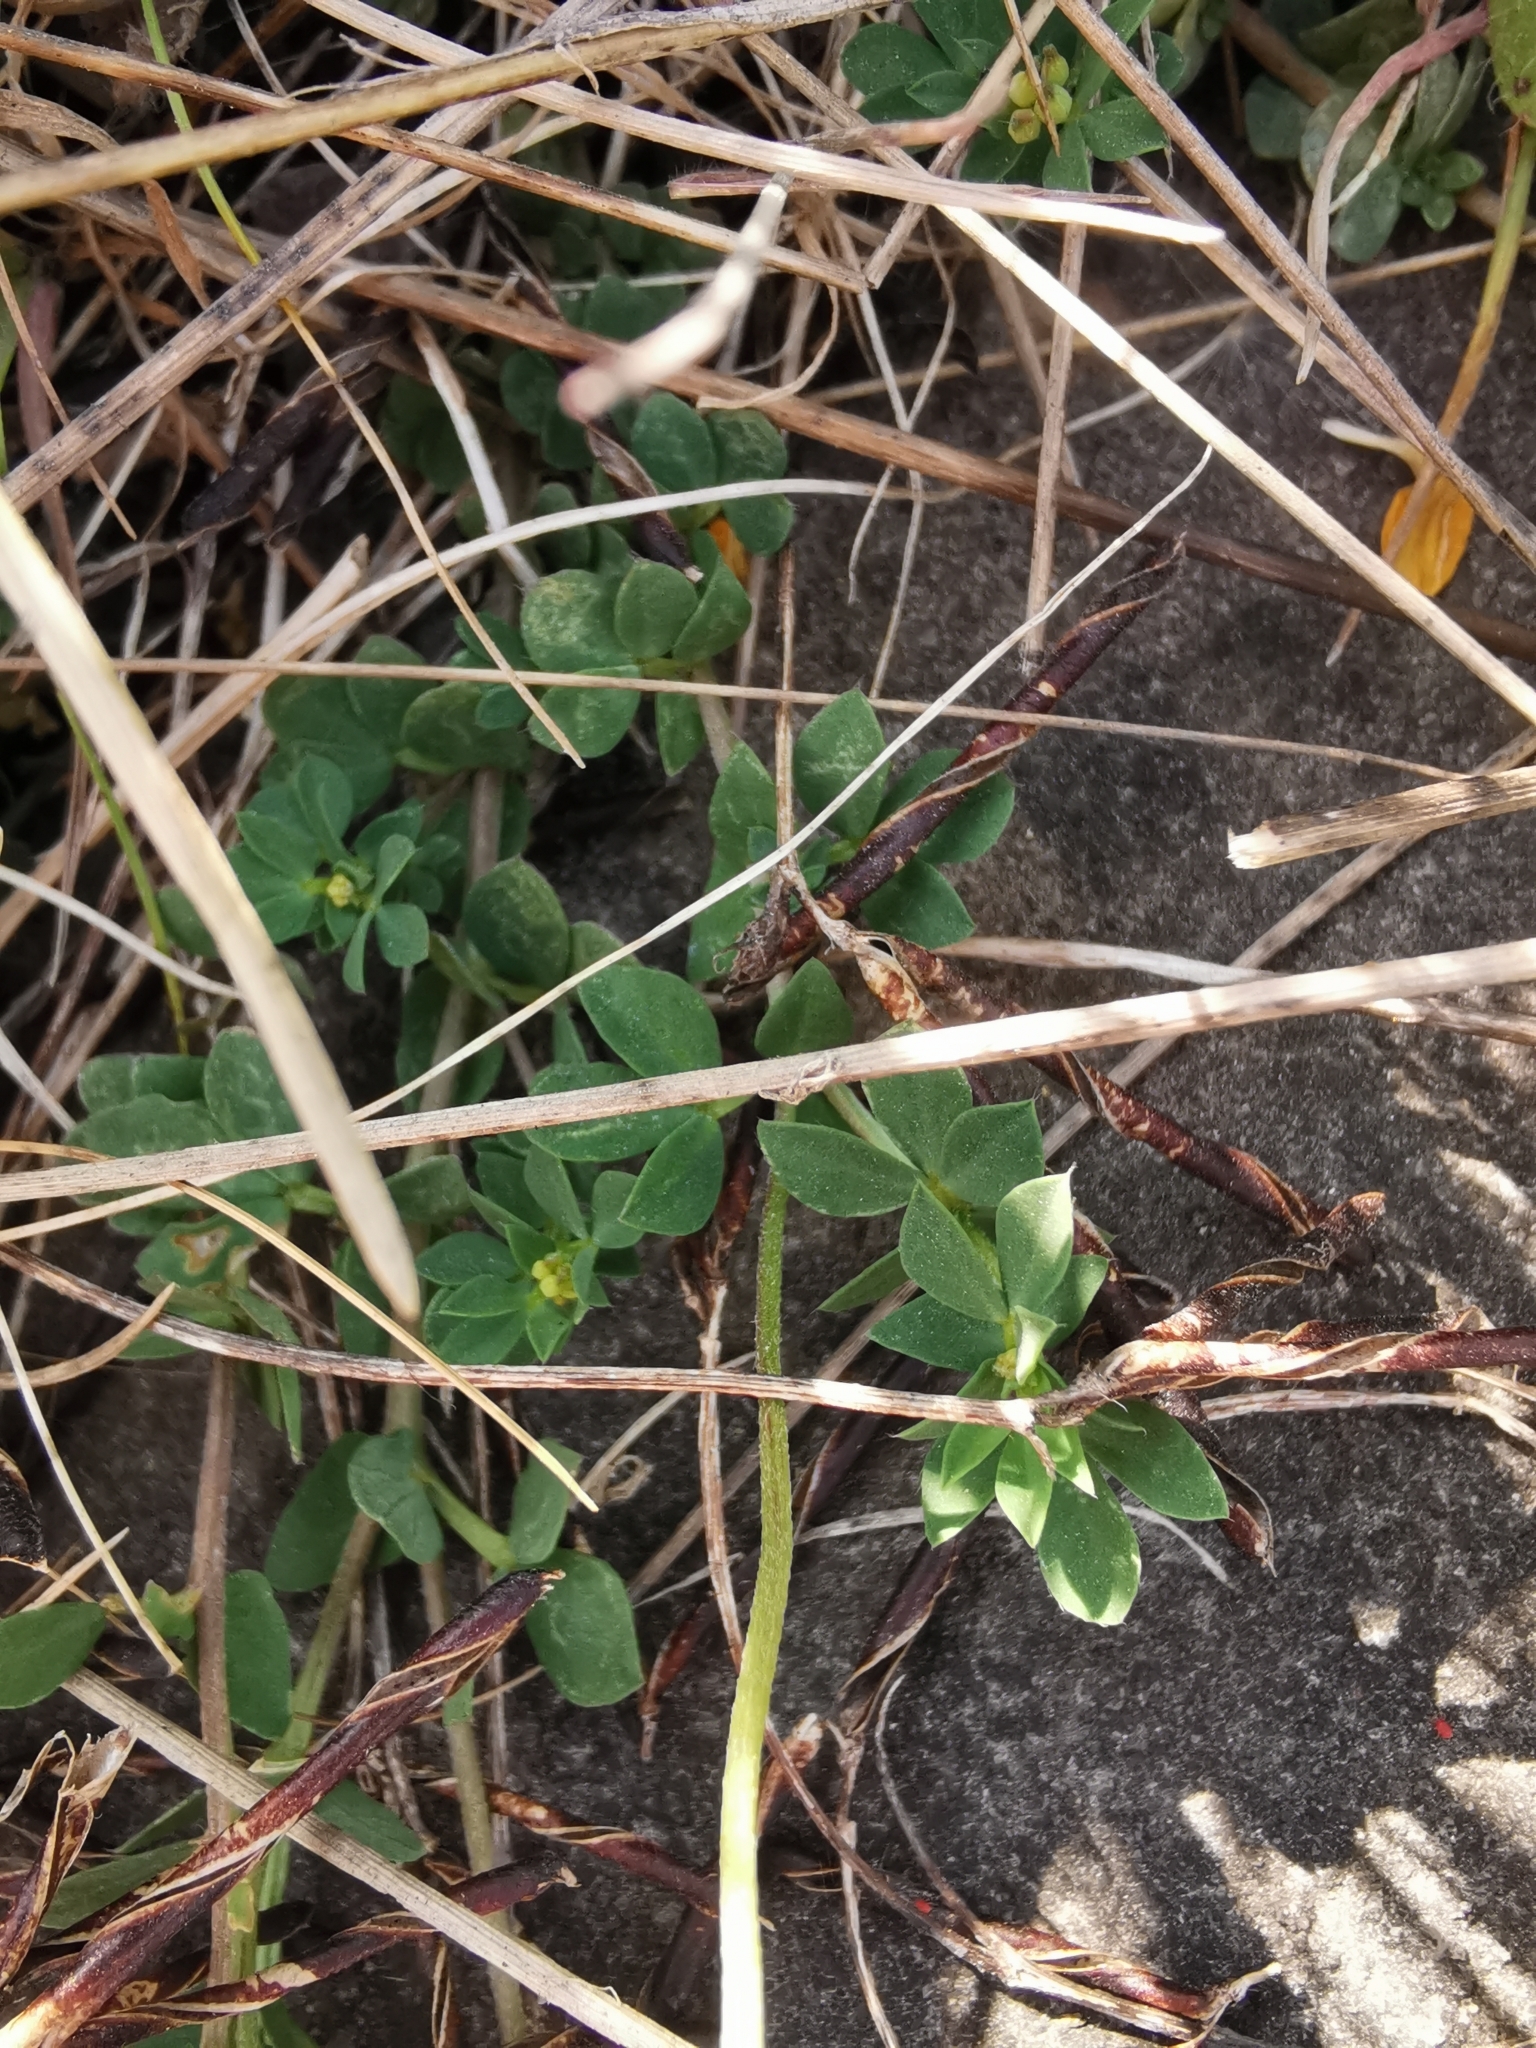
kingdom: Plantae
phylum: Tracheophyta
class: Magnoliopsida
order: Fabales
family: Fabaceae
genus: Lotus
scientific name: Lotus corniculatus
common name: Common bird's-foot-trefoil
